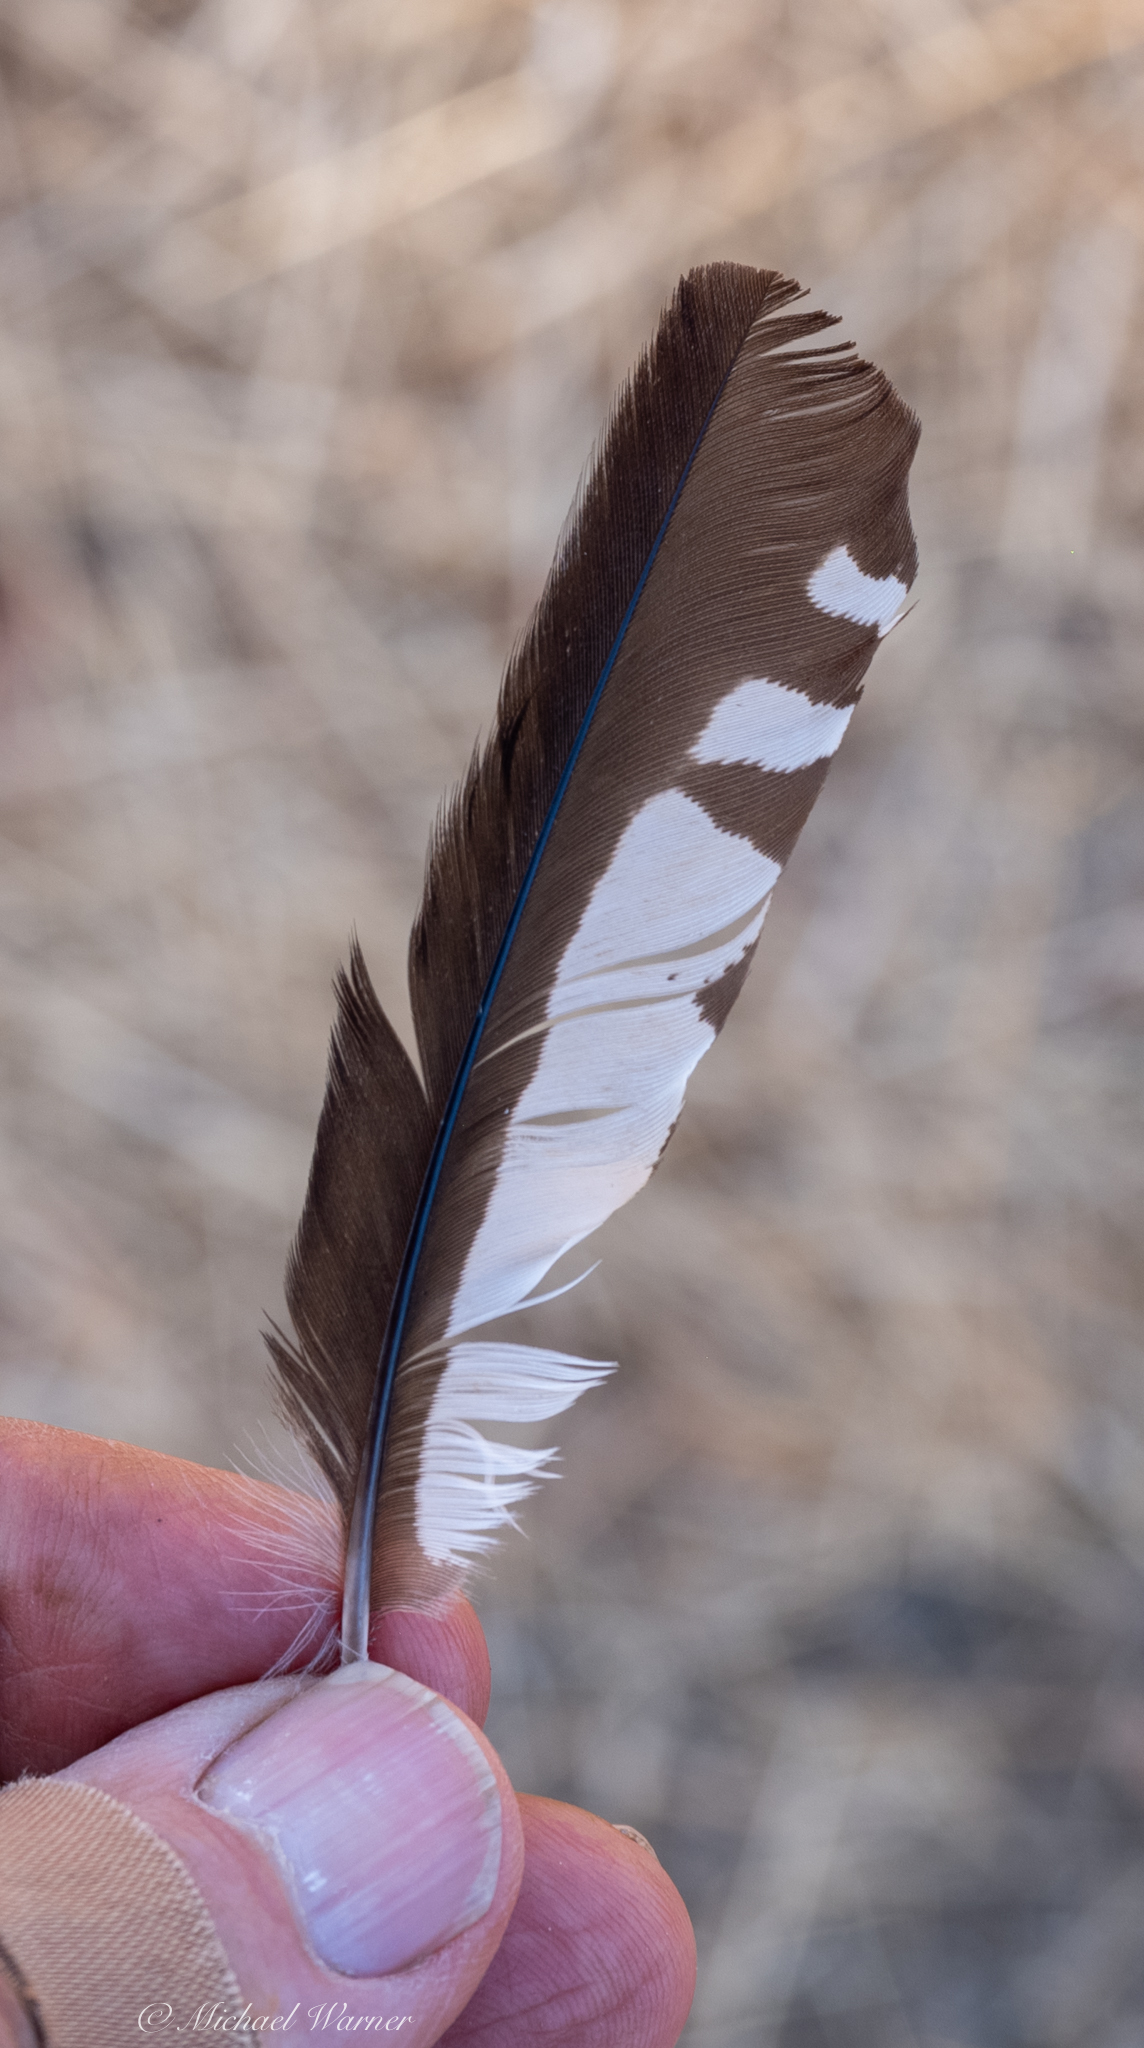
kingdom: Animalia
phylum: Chordata
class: Aves
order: Piciformes
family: Picidae
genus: Melanerpes
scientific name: Melanerpes formicivorus
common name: Acorn woodpecker
